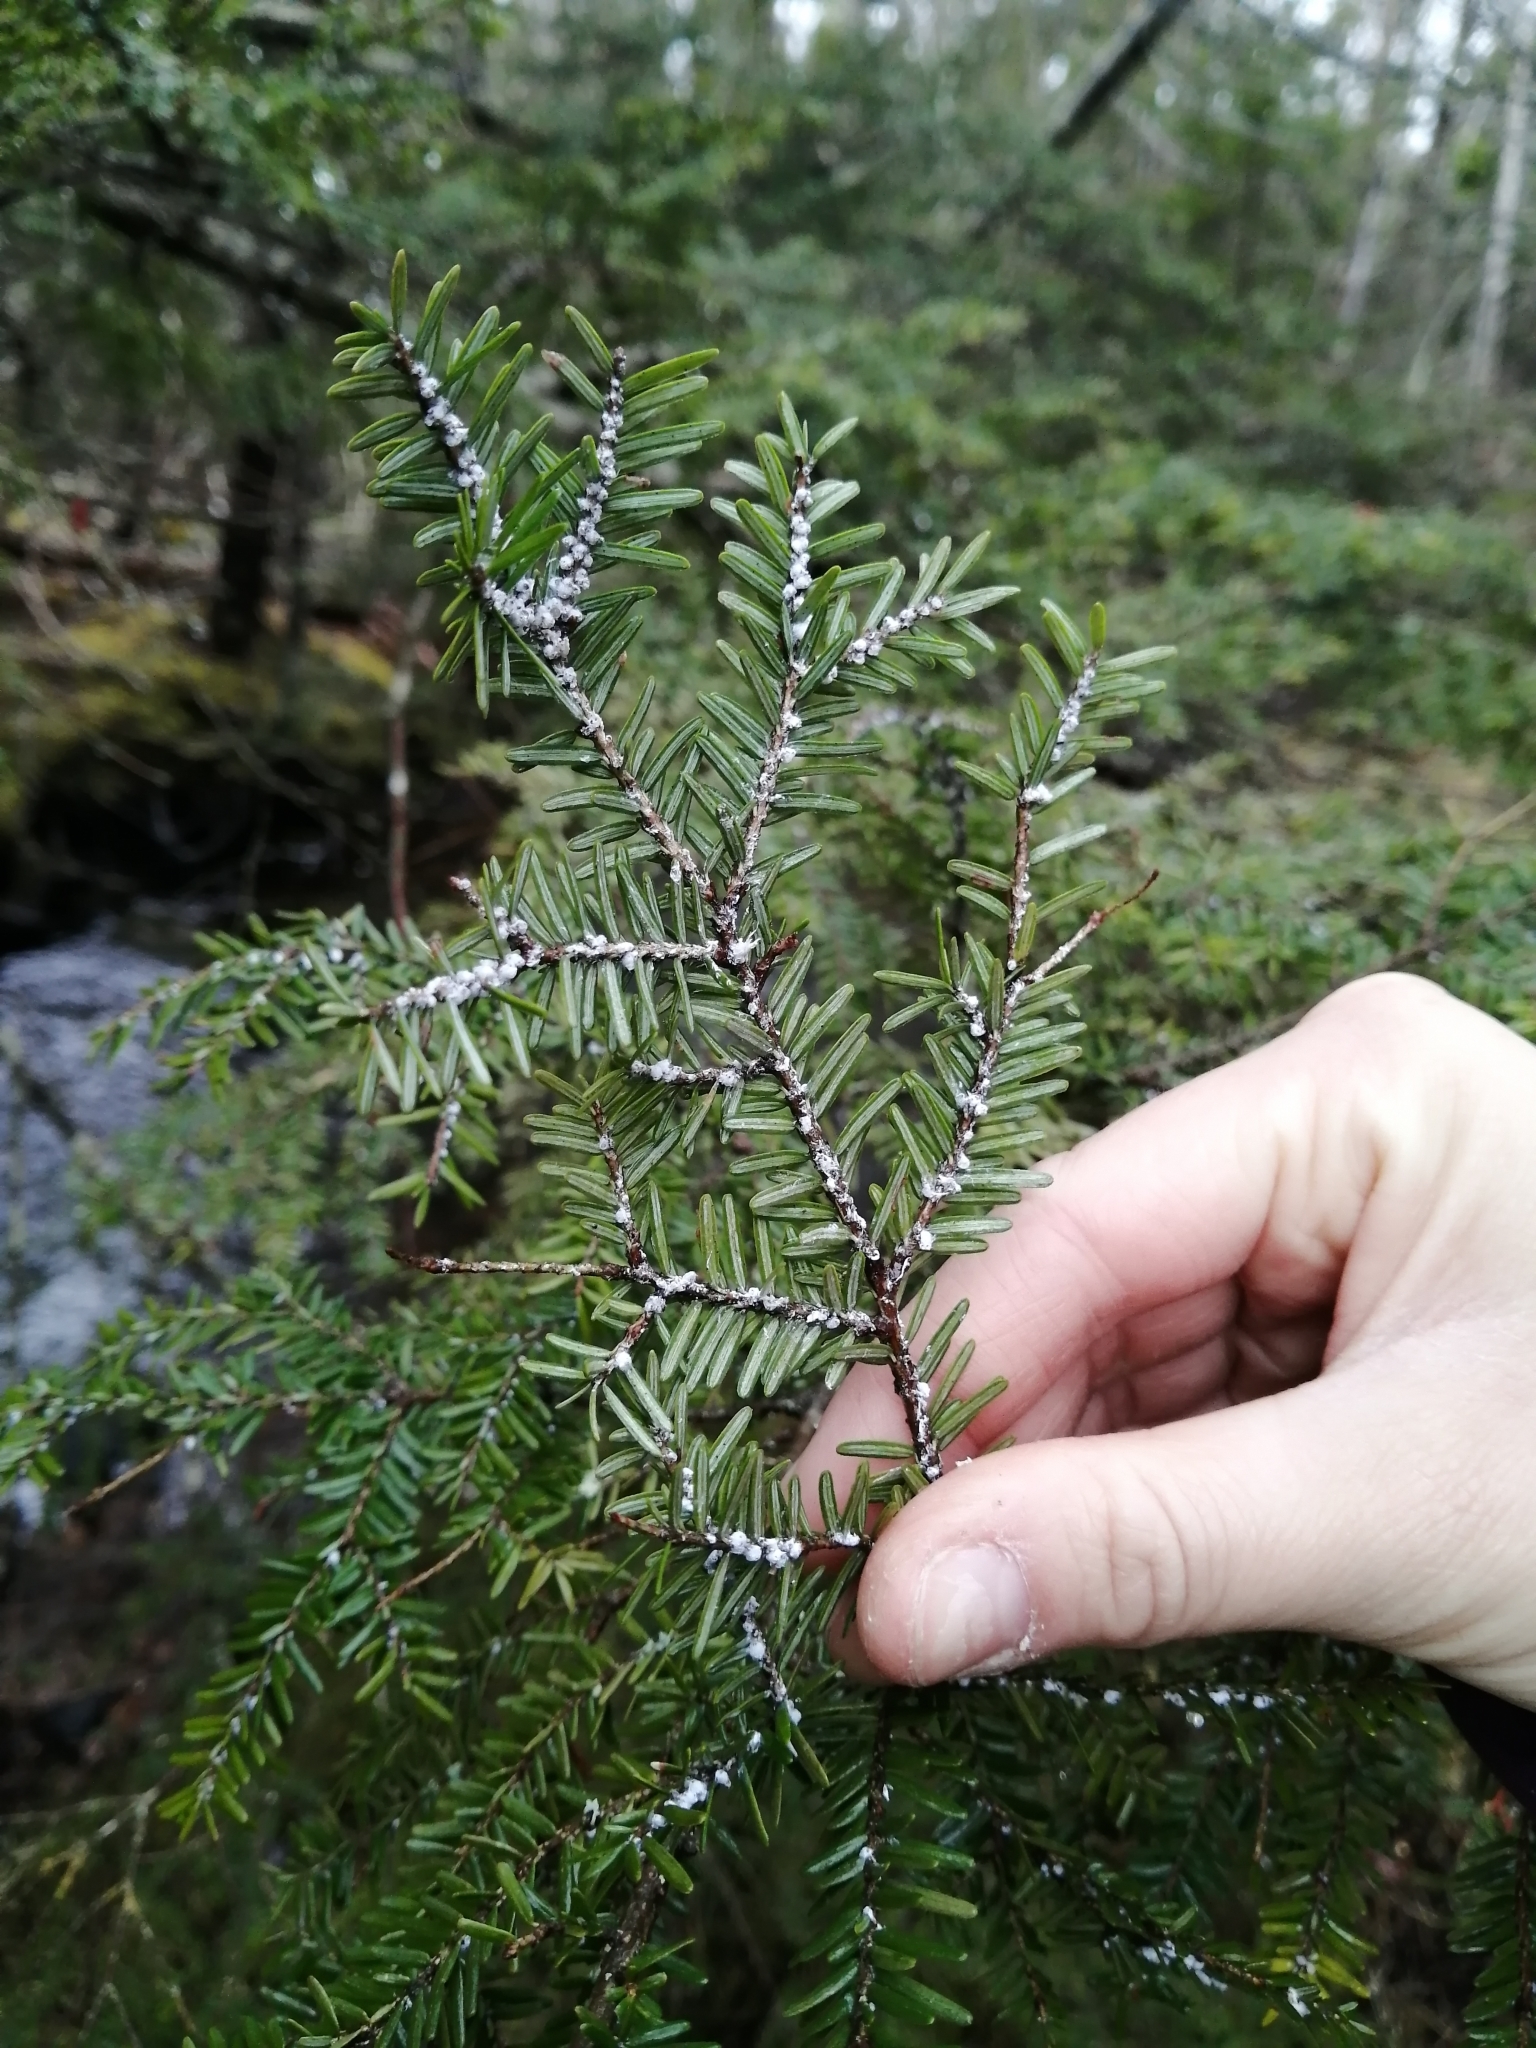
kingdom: Animalia
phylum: Arthropoda
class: Insecta
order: Hemiptera
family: Adelgidae
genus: Adelges
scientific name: Adelges tsugae
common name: Hemlock woolly adelgid
